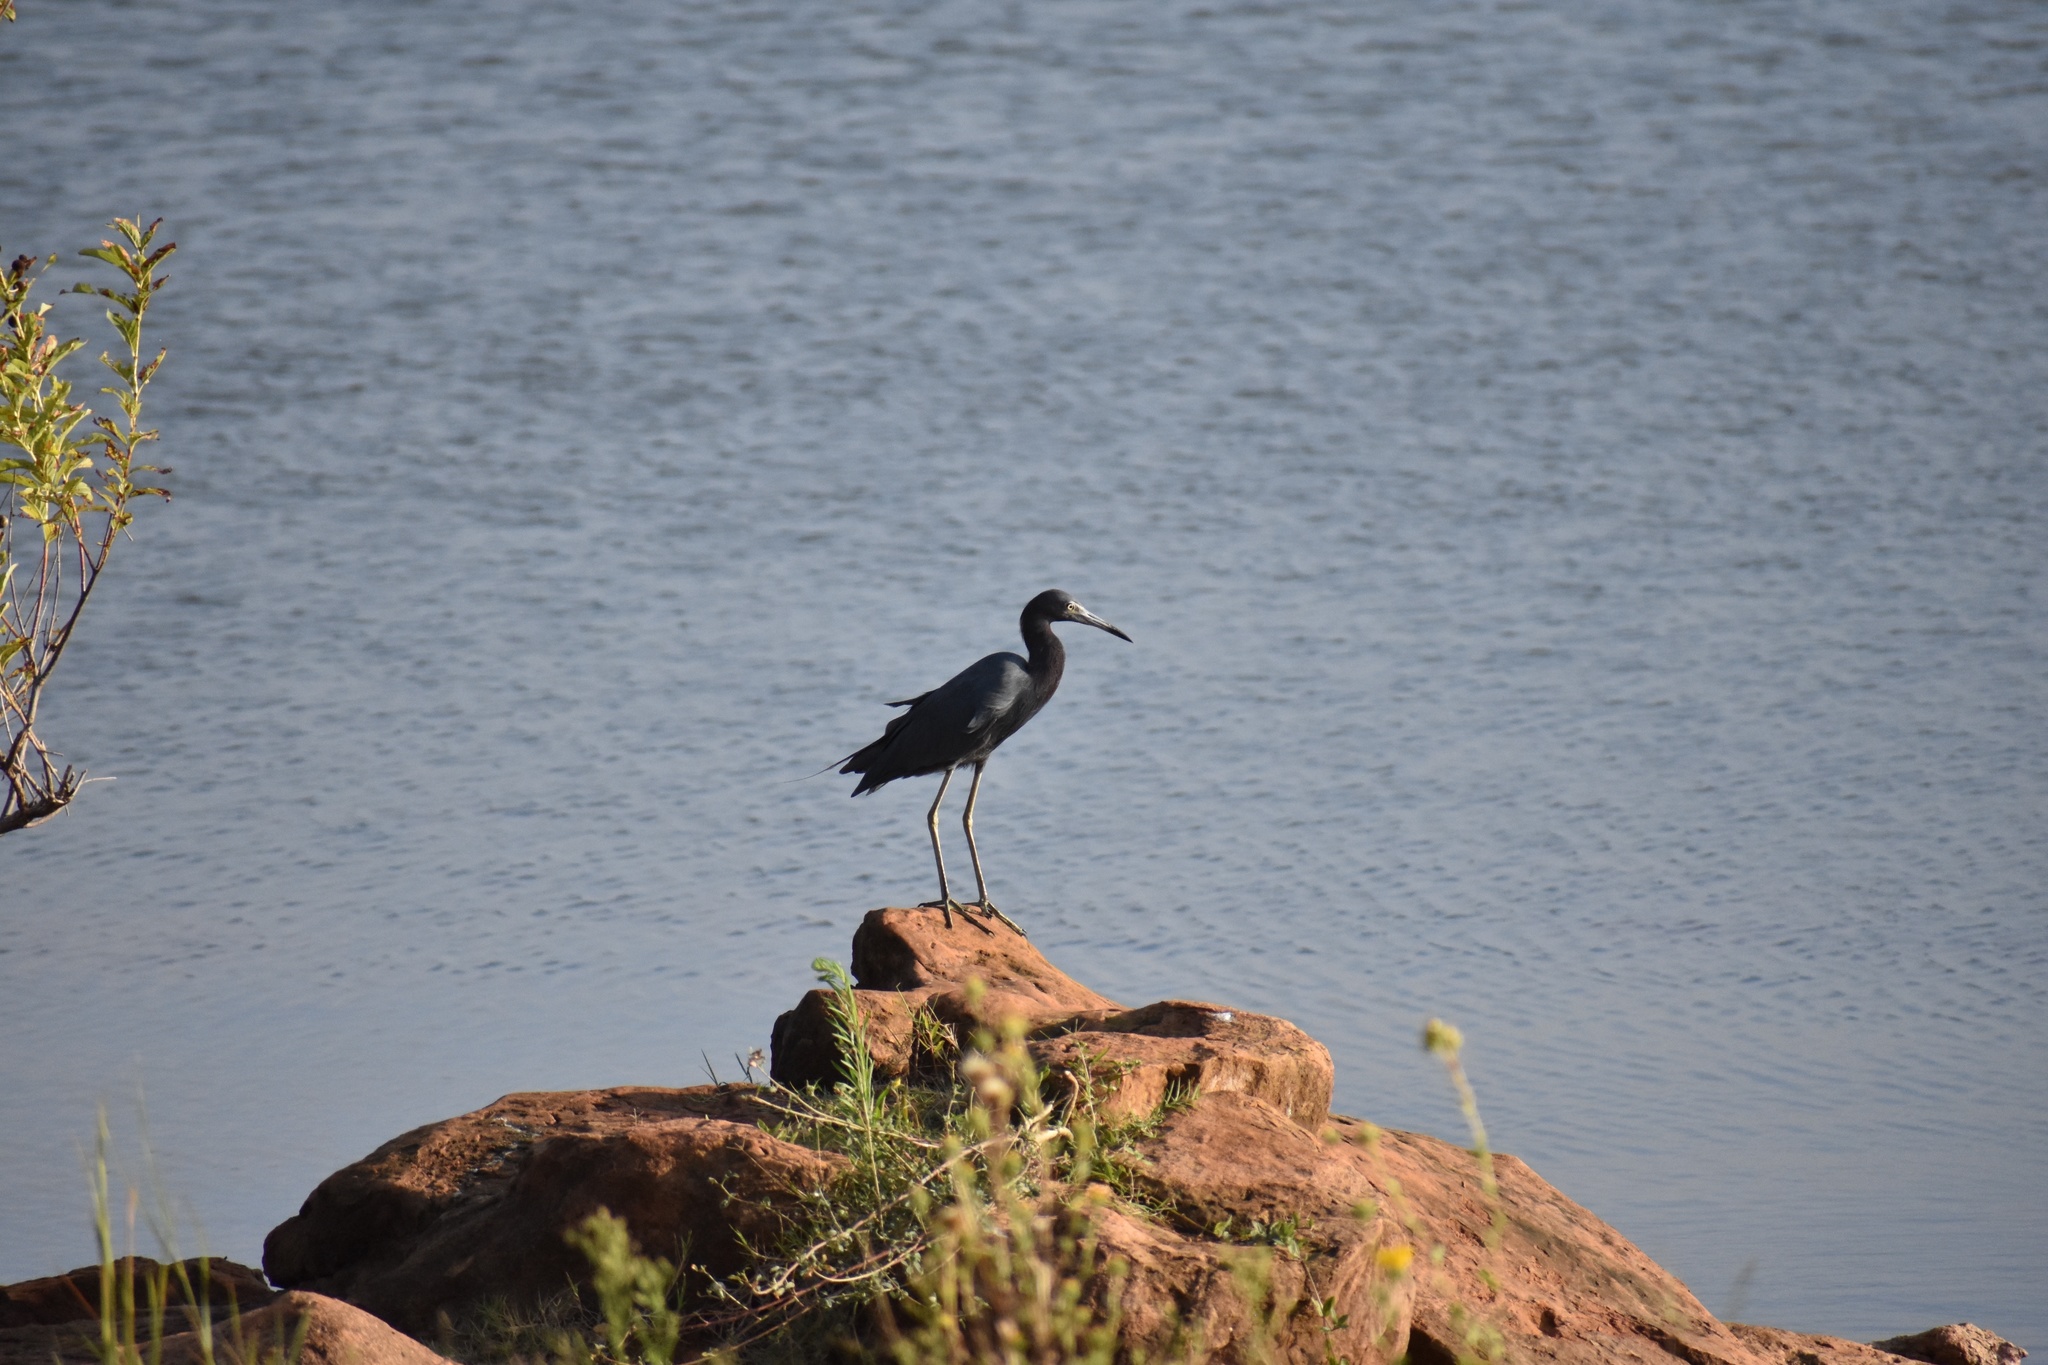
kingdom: Animalia
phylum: Chordata
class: Aves
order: Pelecaniformes
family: Ardeidae
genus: Egretta
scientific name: Egretta caerulea
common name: Little blue heron
